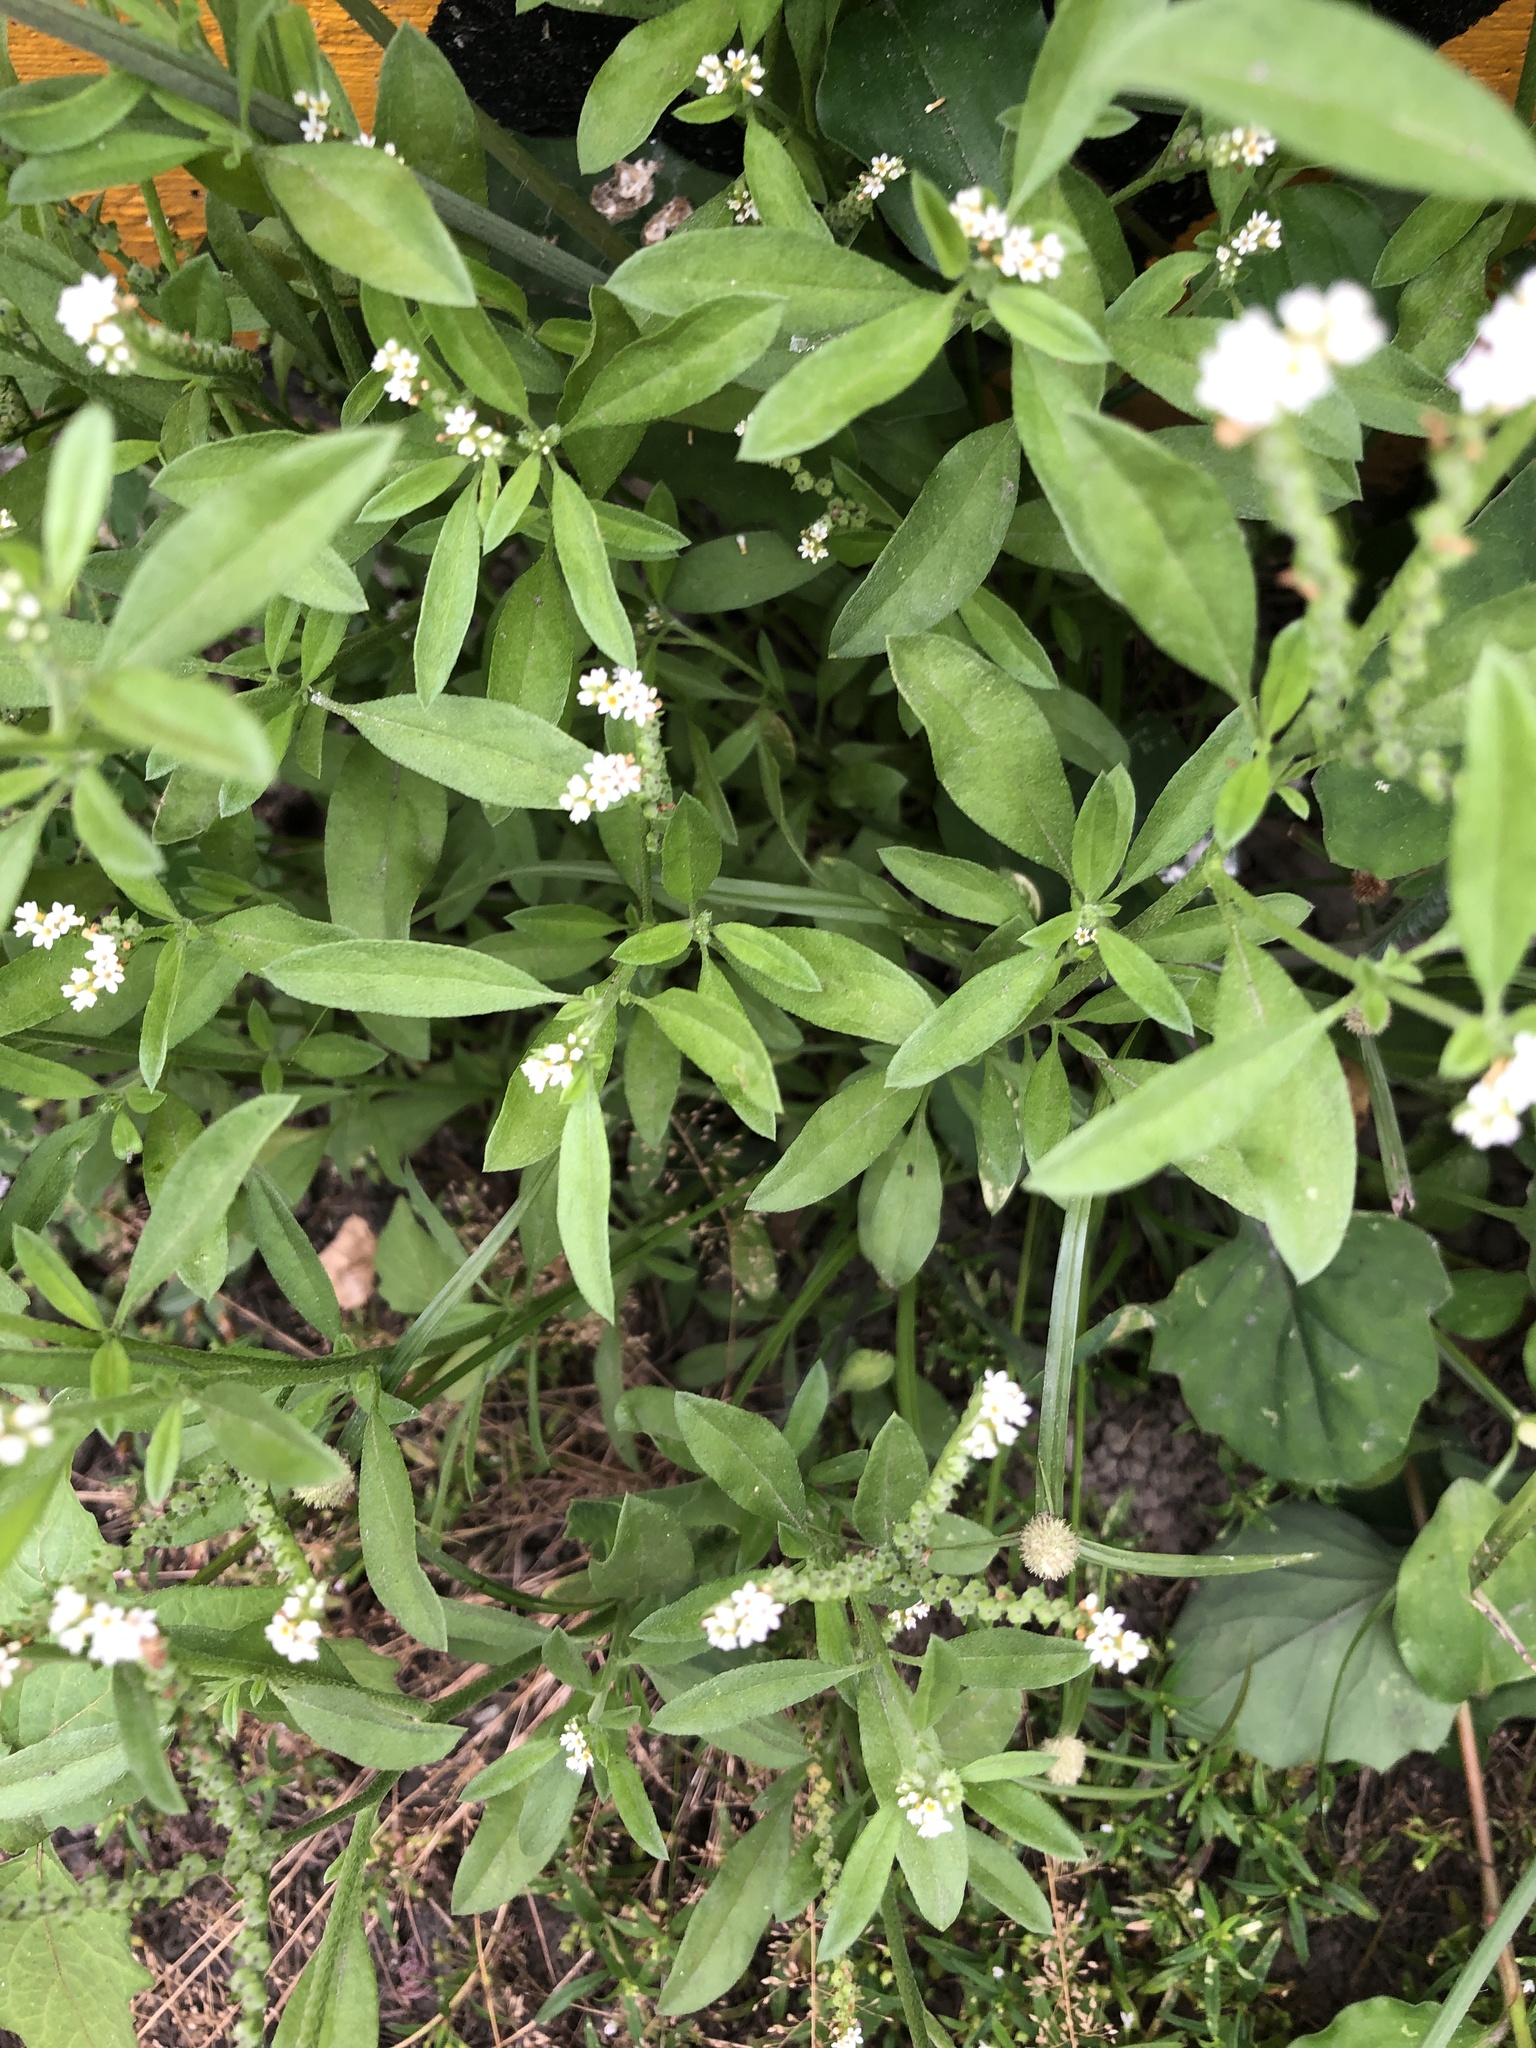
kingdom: Plantae
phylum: Tracheophyta
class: Magnoliopsida
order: Boraginales
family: Heliotropiaceae
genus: Euploca
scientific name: Euploca procumbens
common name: Fourspike heliotrope
